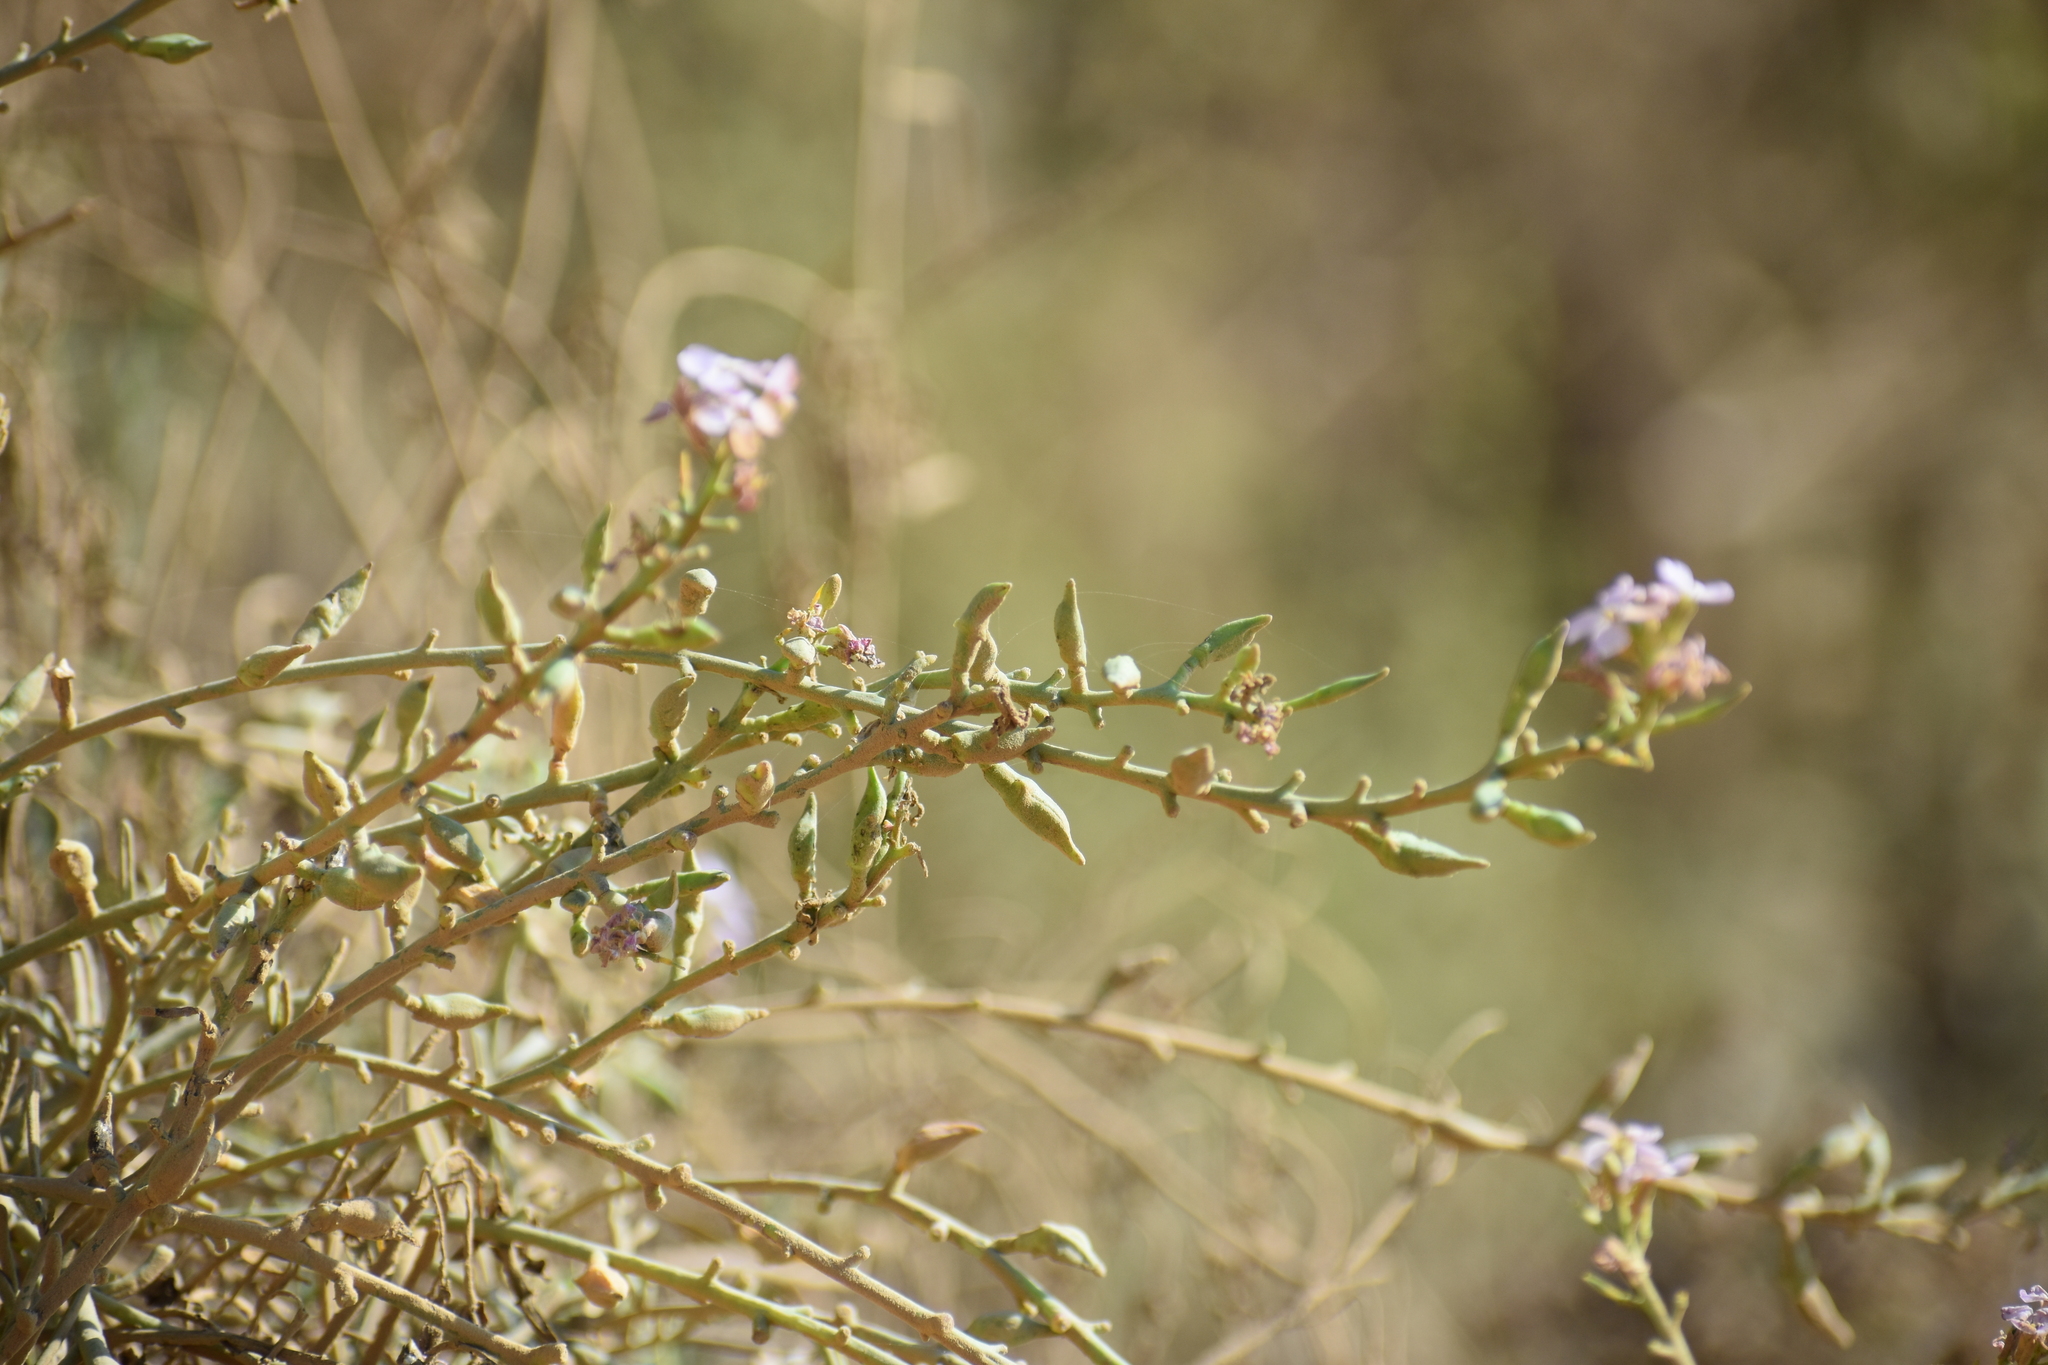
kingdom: Plantae
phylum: Tracheophyta
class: Magnoliopsida
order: Brassicales
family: Brassicaceae
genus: Cakile
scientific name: Cakile maritima
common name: Sea rocket
